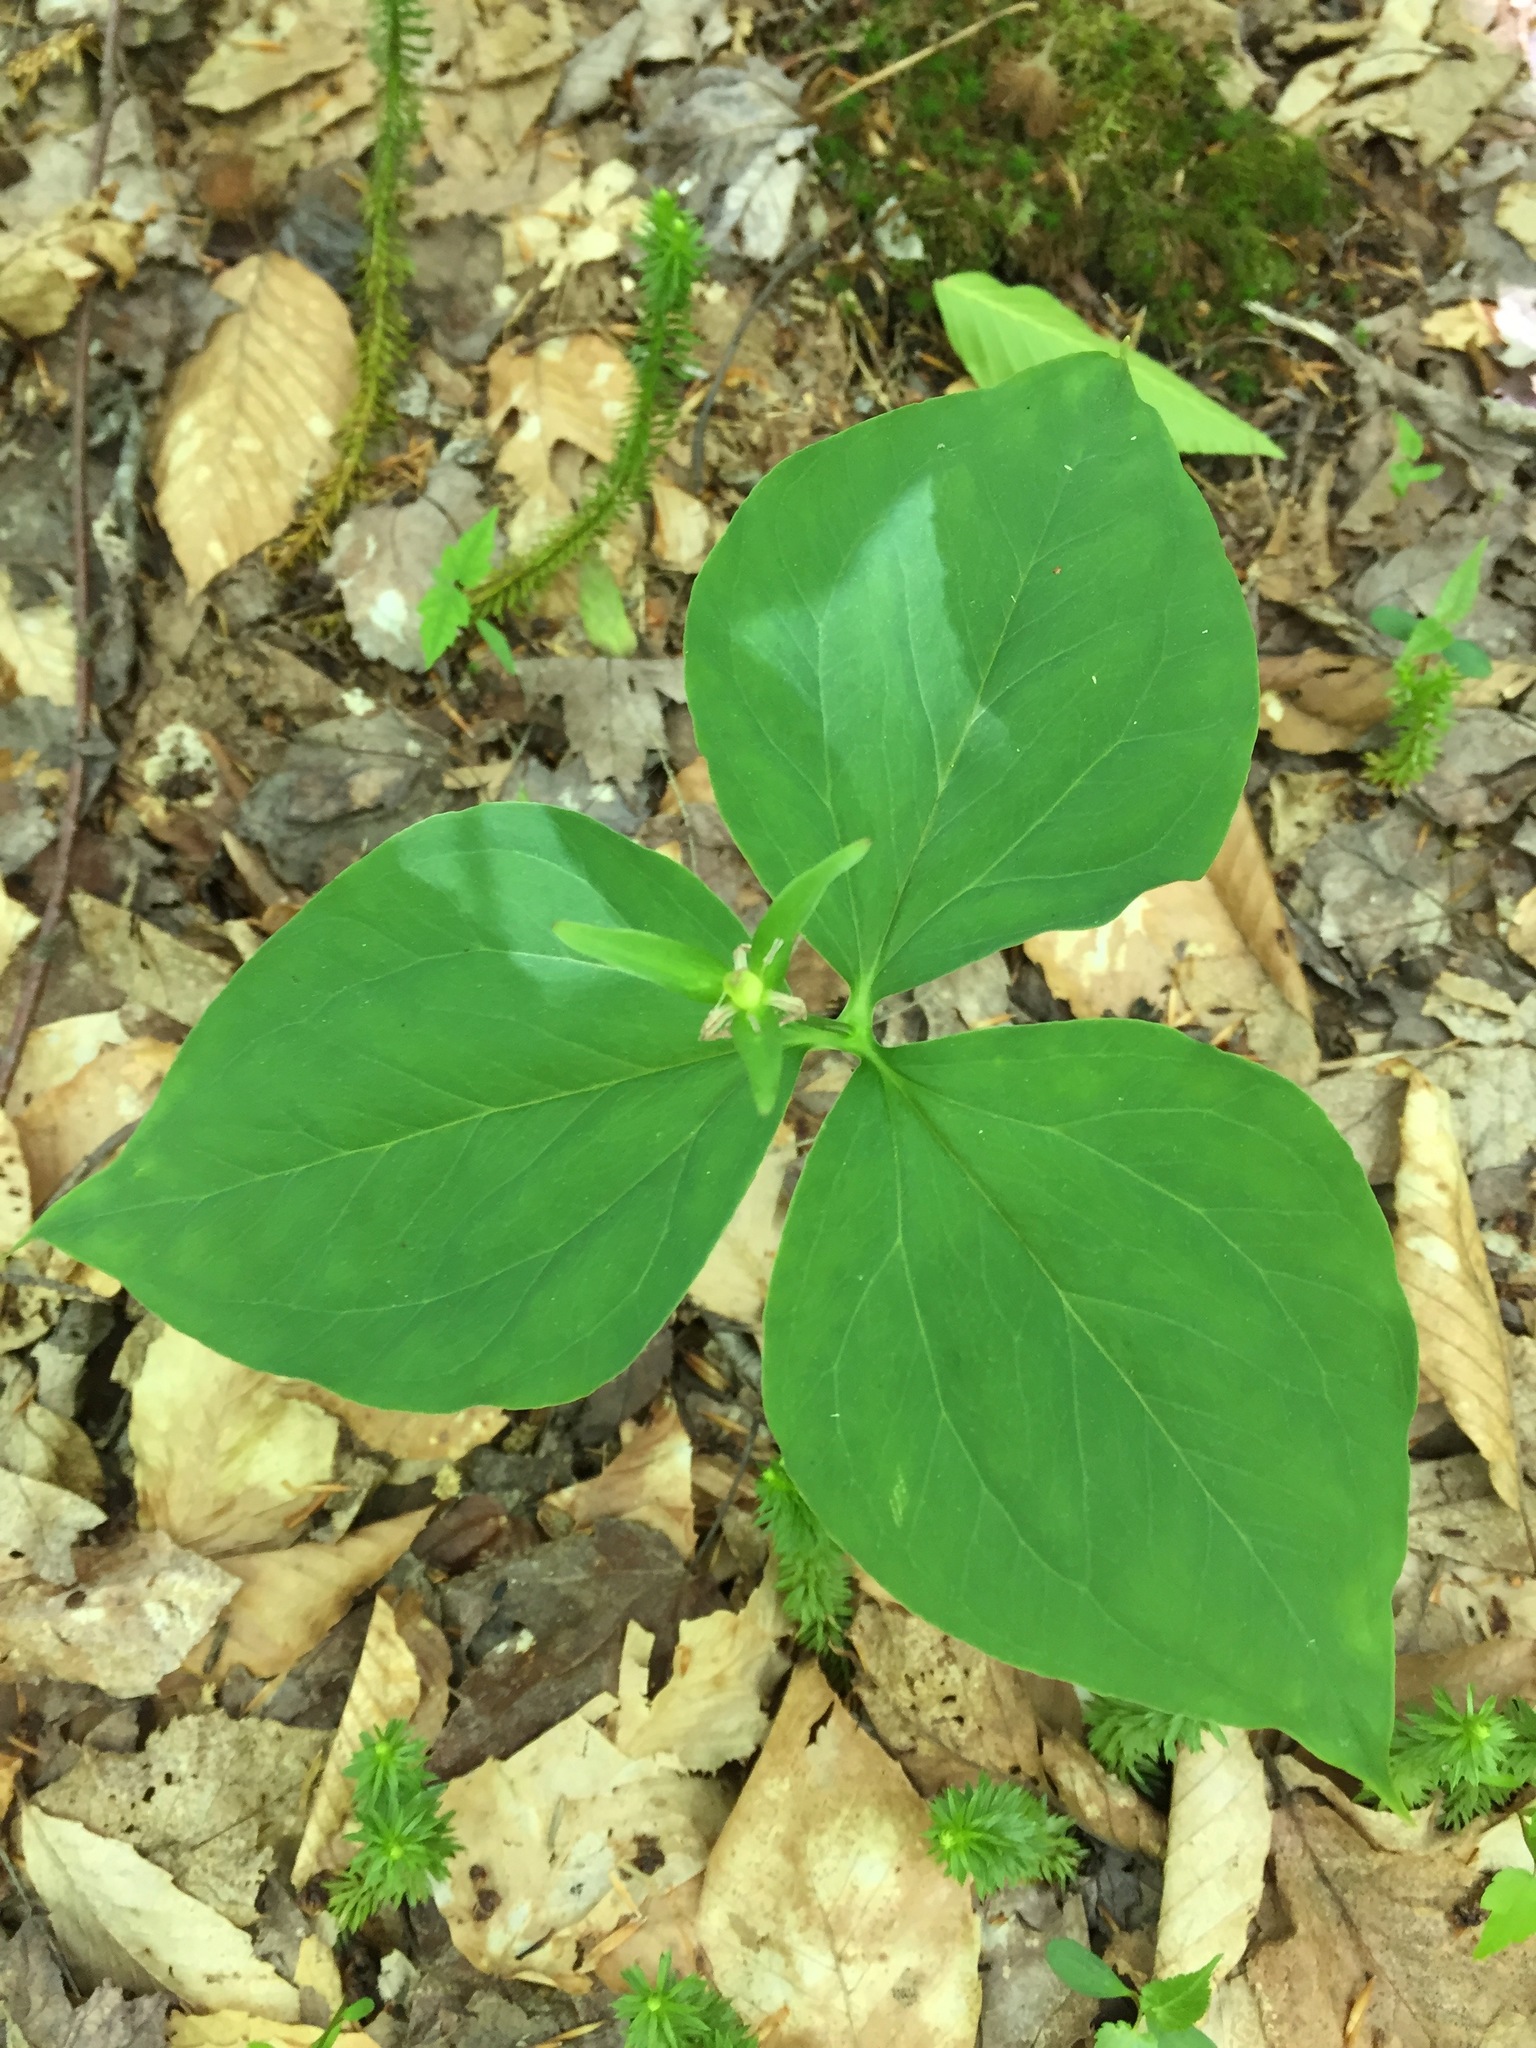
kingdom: Plantae
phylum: Tracheophyta
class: Liliopsida
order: Liliales
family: Melanthiaceae
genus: Trillium
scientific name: Trillium undulatum
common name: Paint trillium
